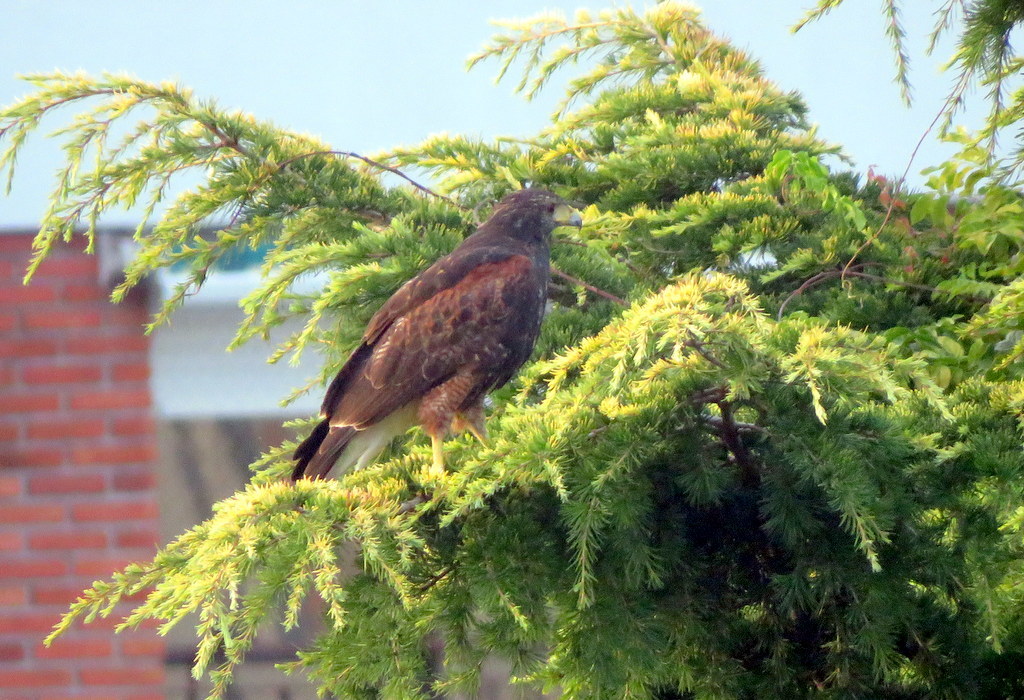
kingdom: Animalia
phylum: Chordata
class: Aves
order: Accipitriformes
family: Accipitridae
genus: Parabuteo
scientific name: Parabuteo unicinctus
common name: Harris's hawk
